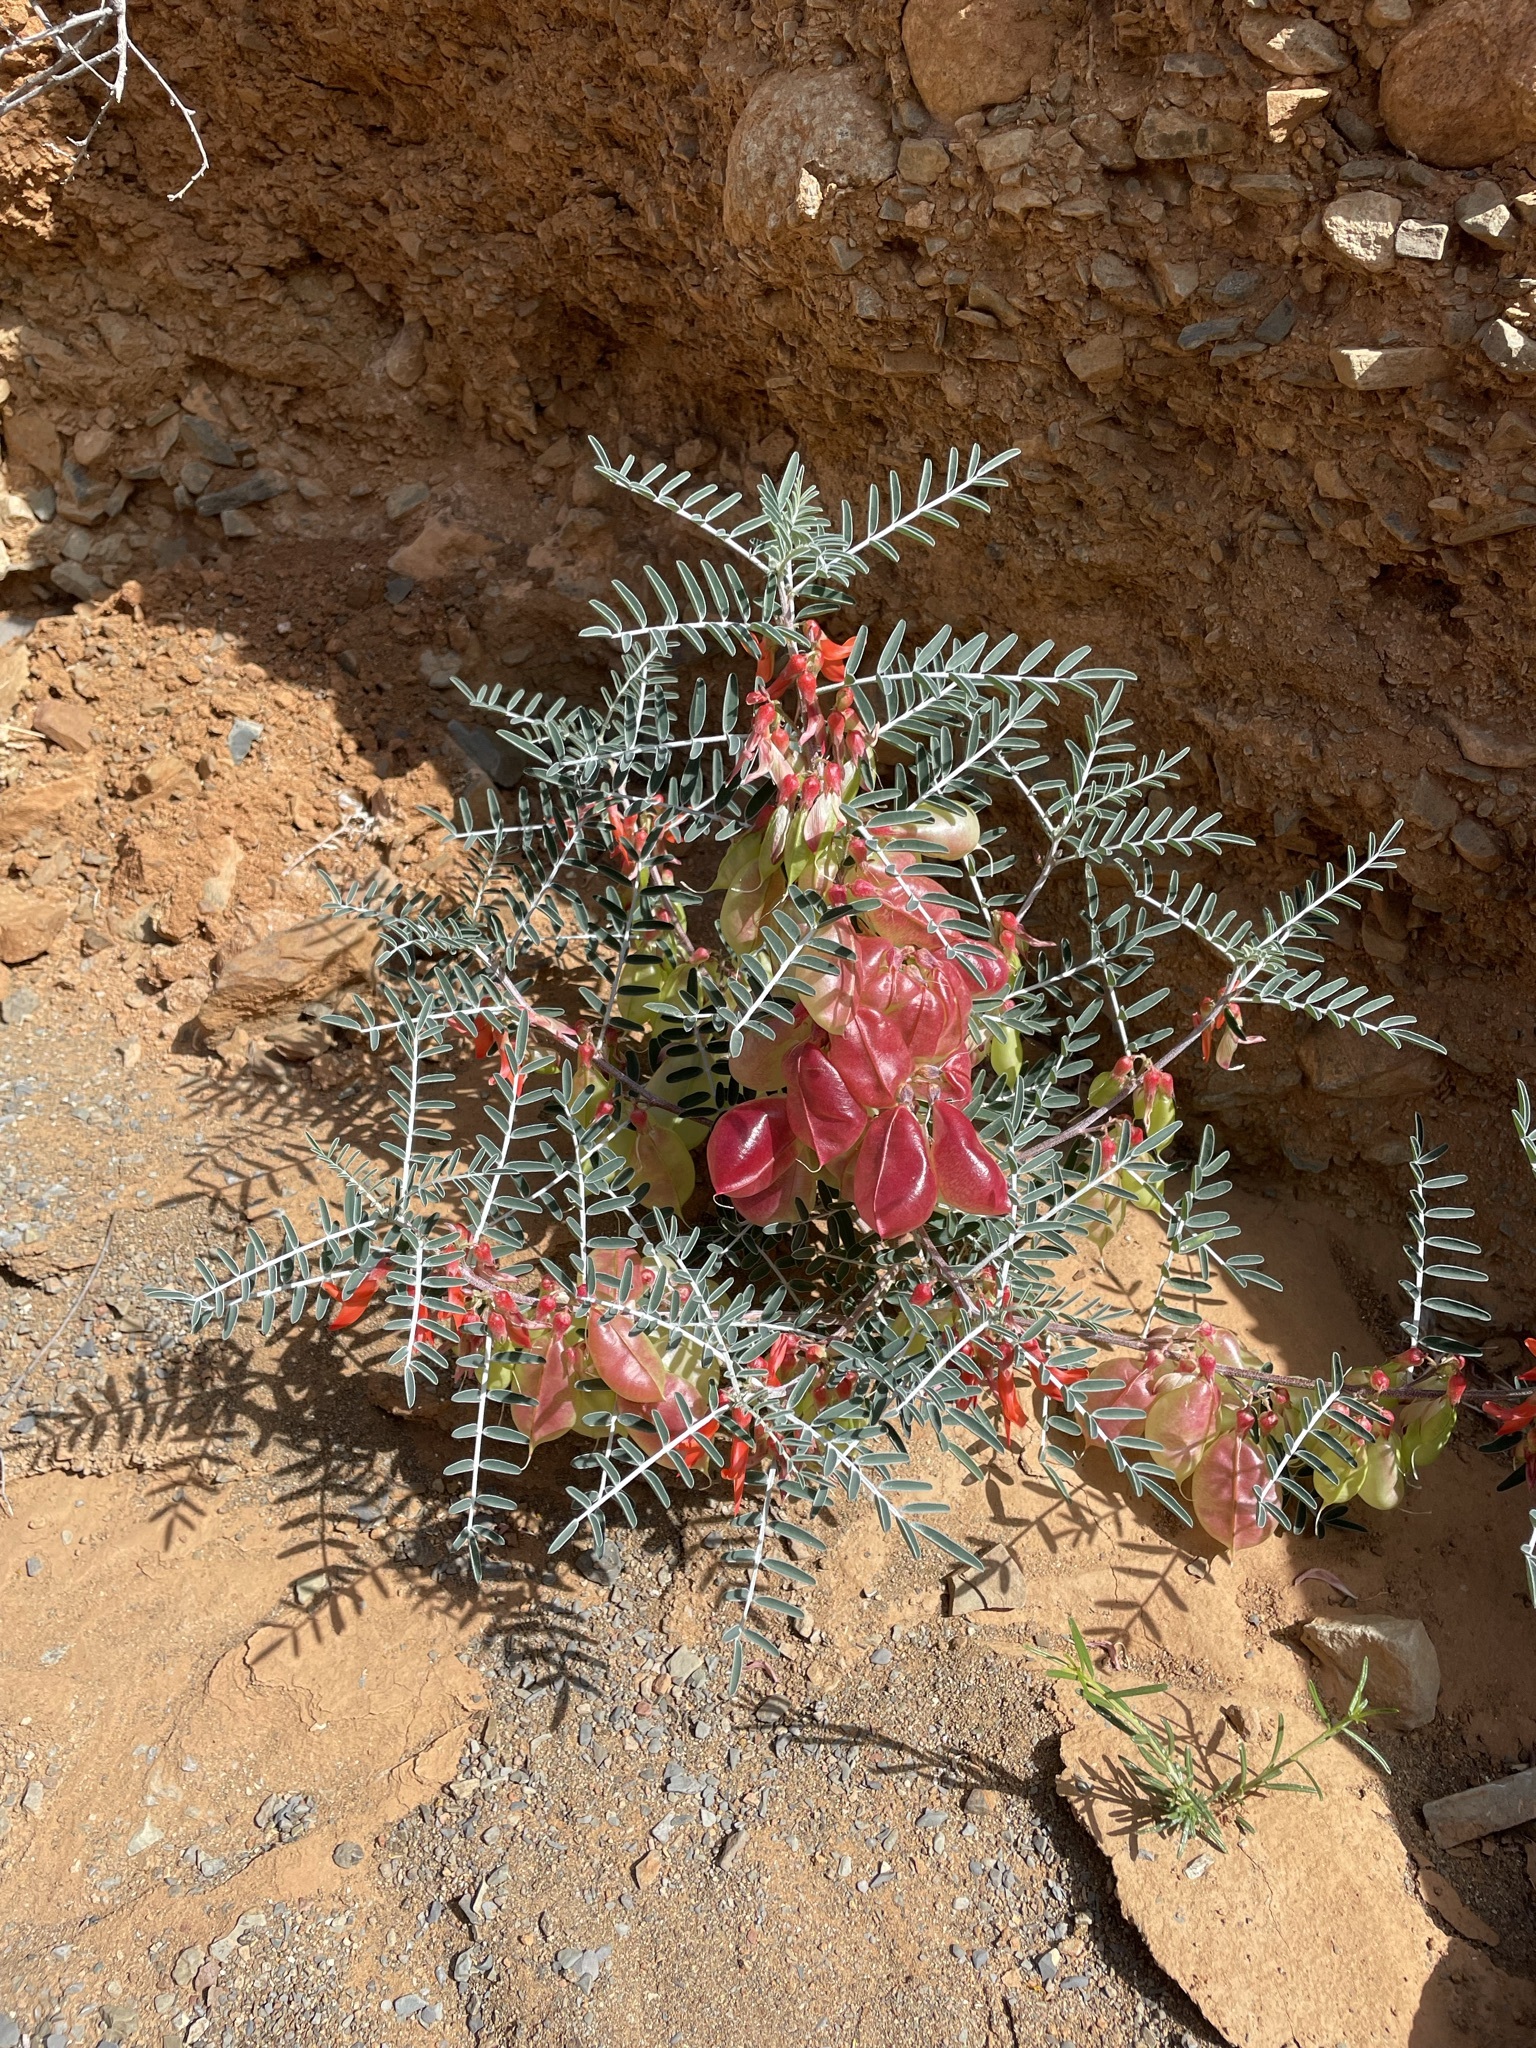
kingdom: Plantae
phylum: Tracheophyta
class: Magnoliopsida
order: Fabales
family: Fabaceae
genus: Lessertia
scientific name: Lessertia frutescens
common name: Balloon-pea
